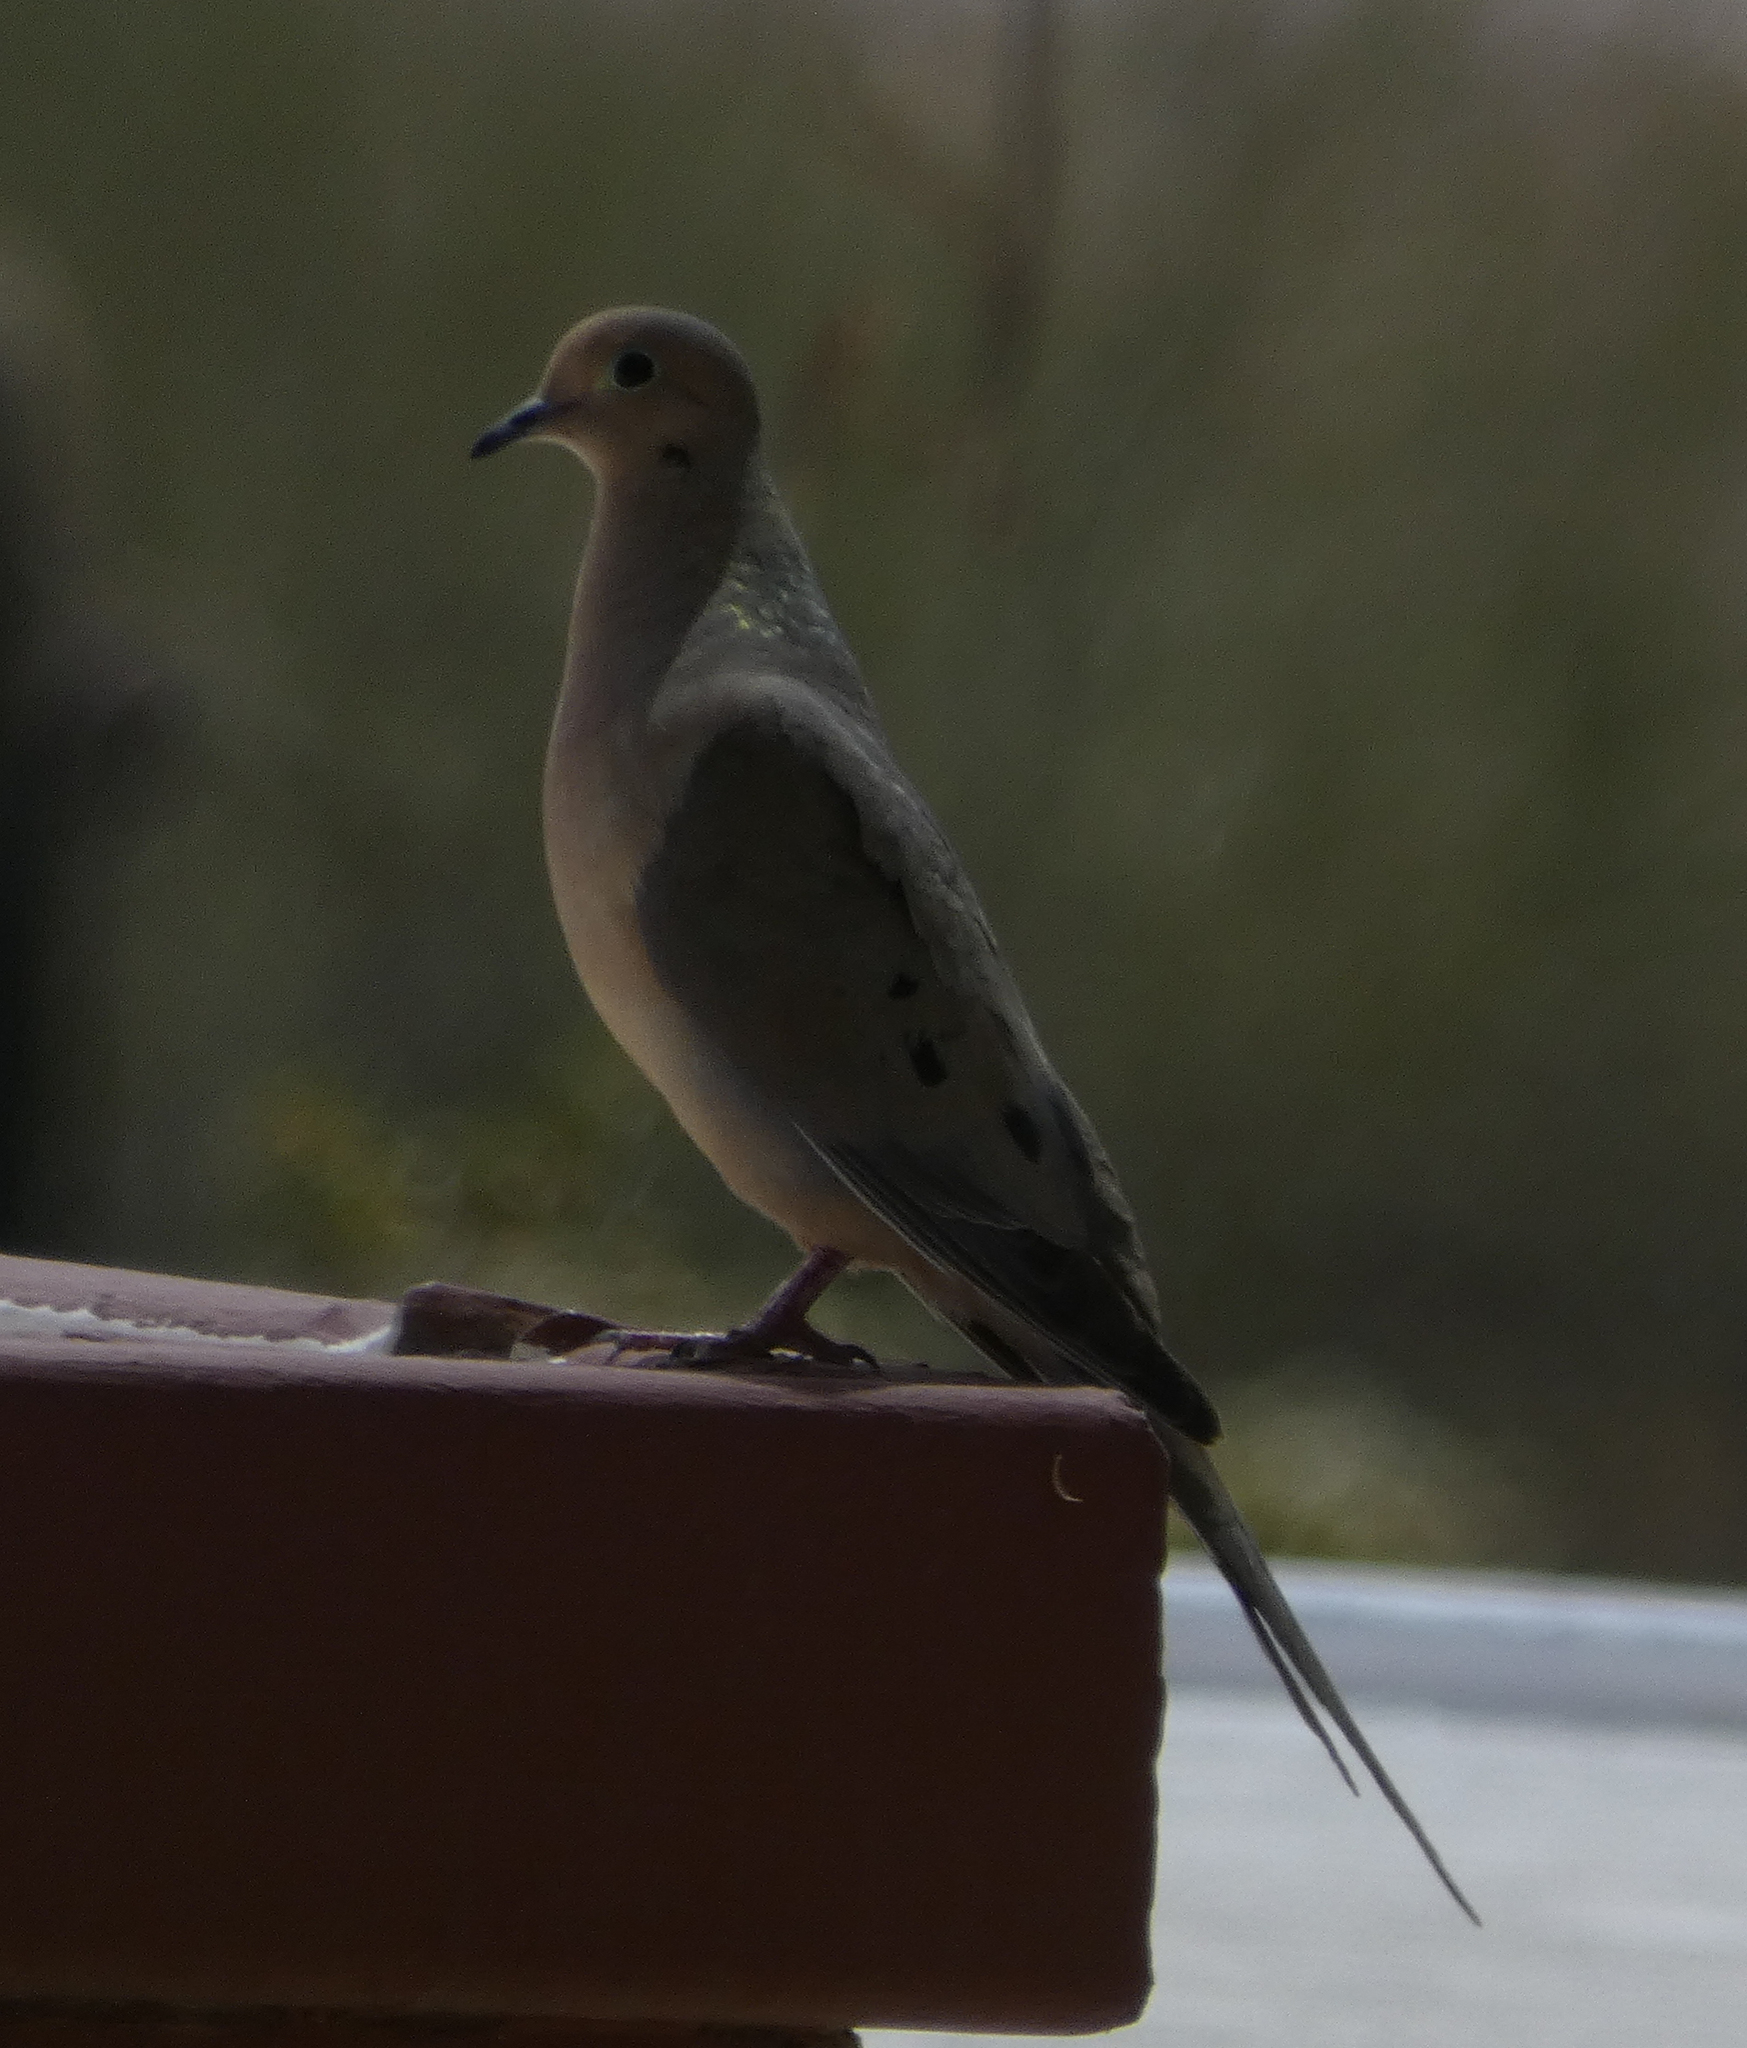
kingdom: Animalia
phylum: Chordata
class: Aves
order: Columbiformes
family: Columbidae
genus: Zenaida
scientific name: Zenaida macroura
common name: Mourning dove
